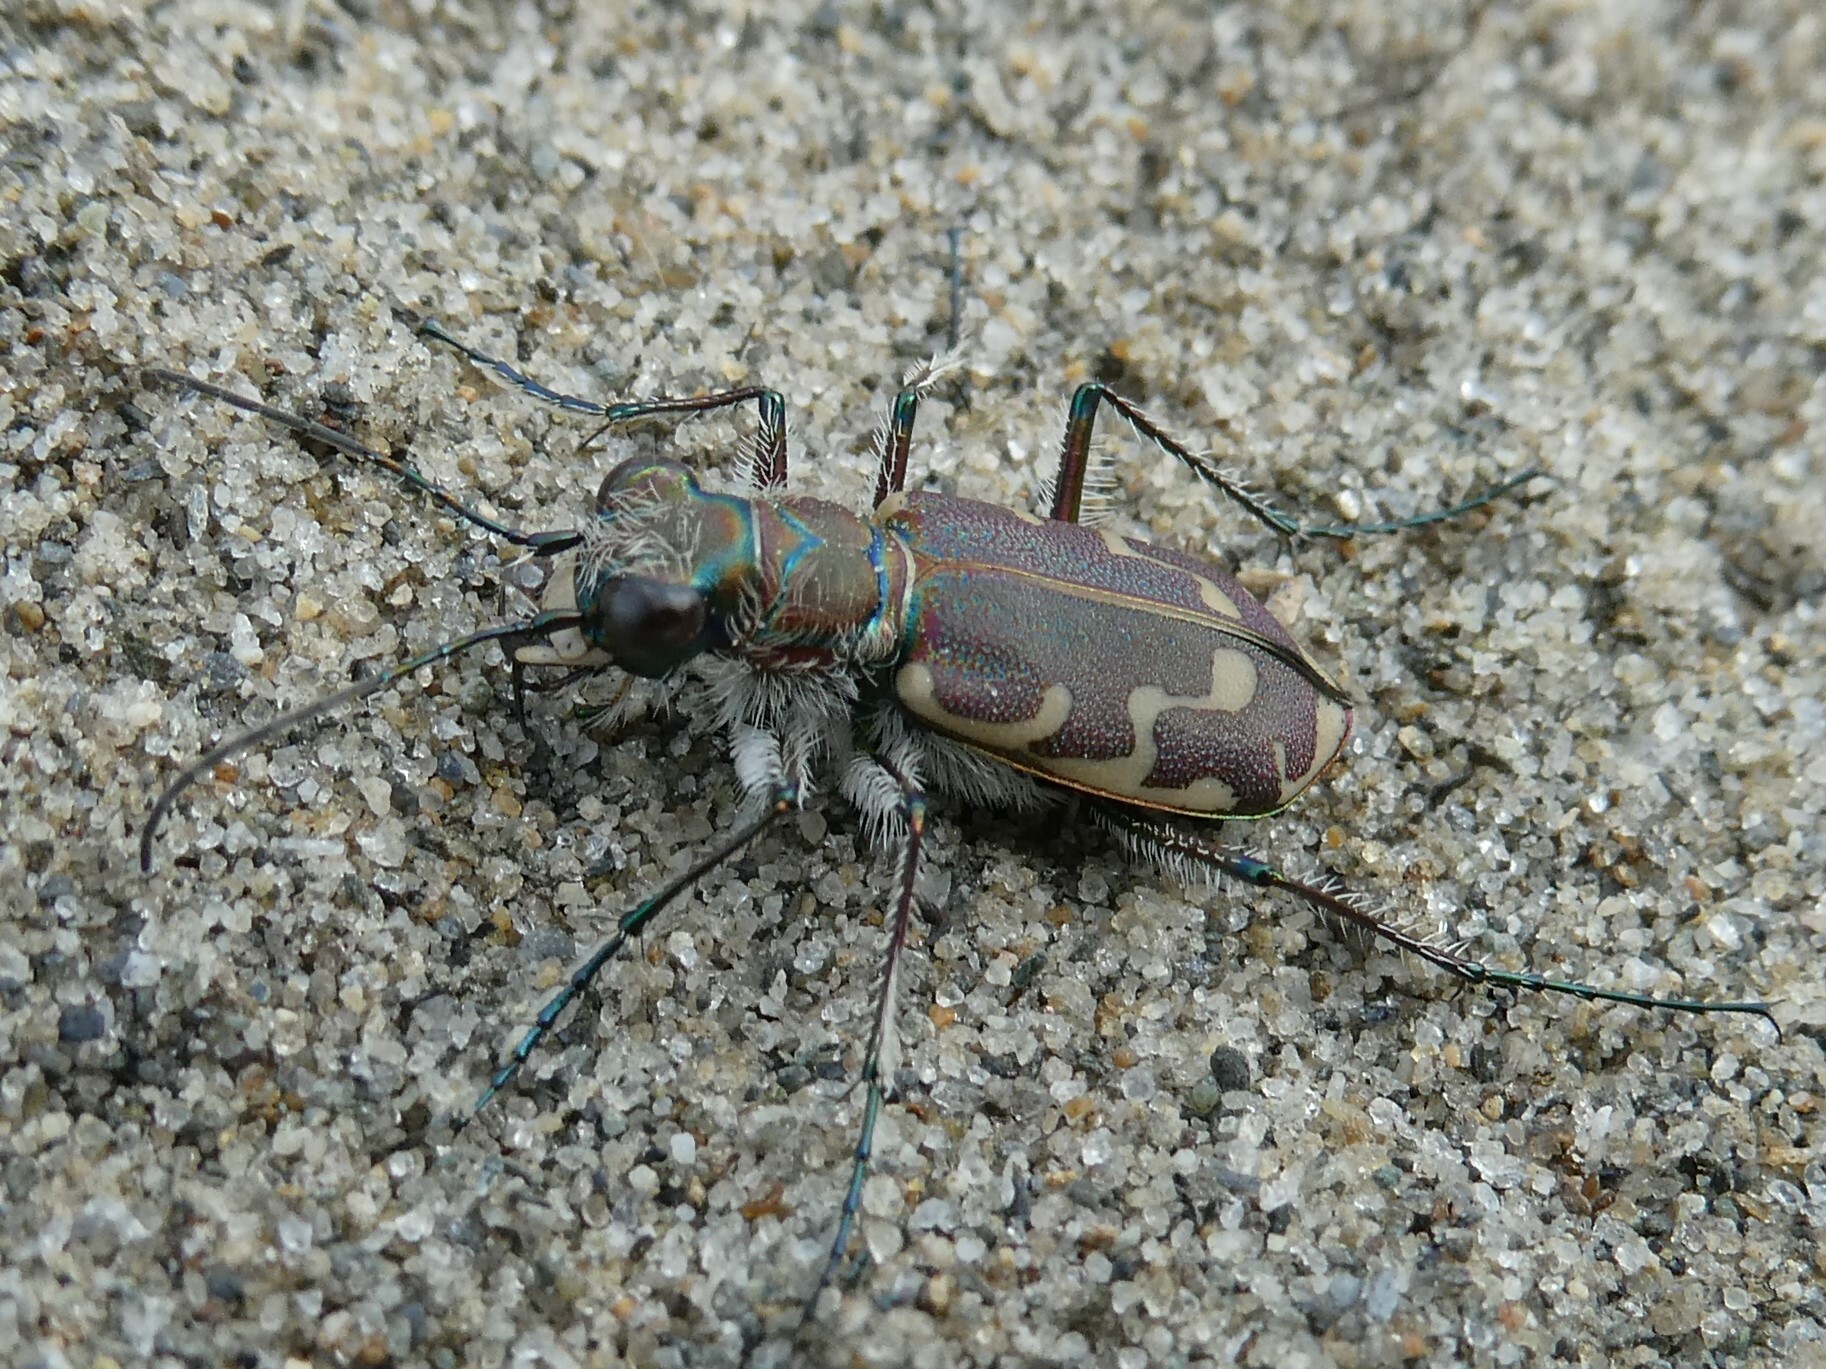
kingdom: Animalia
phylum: Arthropoda
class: Insecta
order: Coleoptera
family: Carabidae
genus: Cicindela
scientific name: Cicindela repanda
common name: Bronzed tiger beetle
